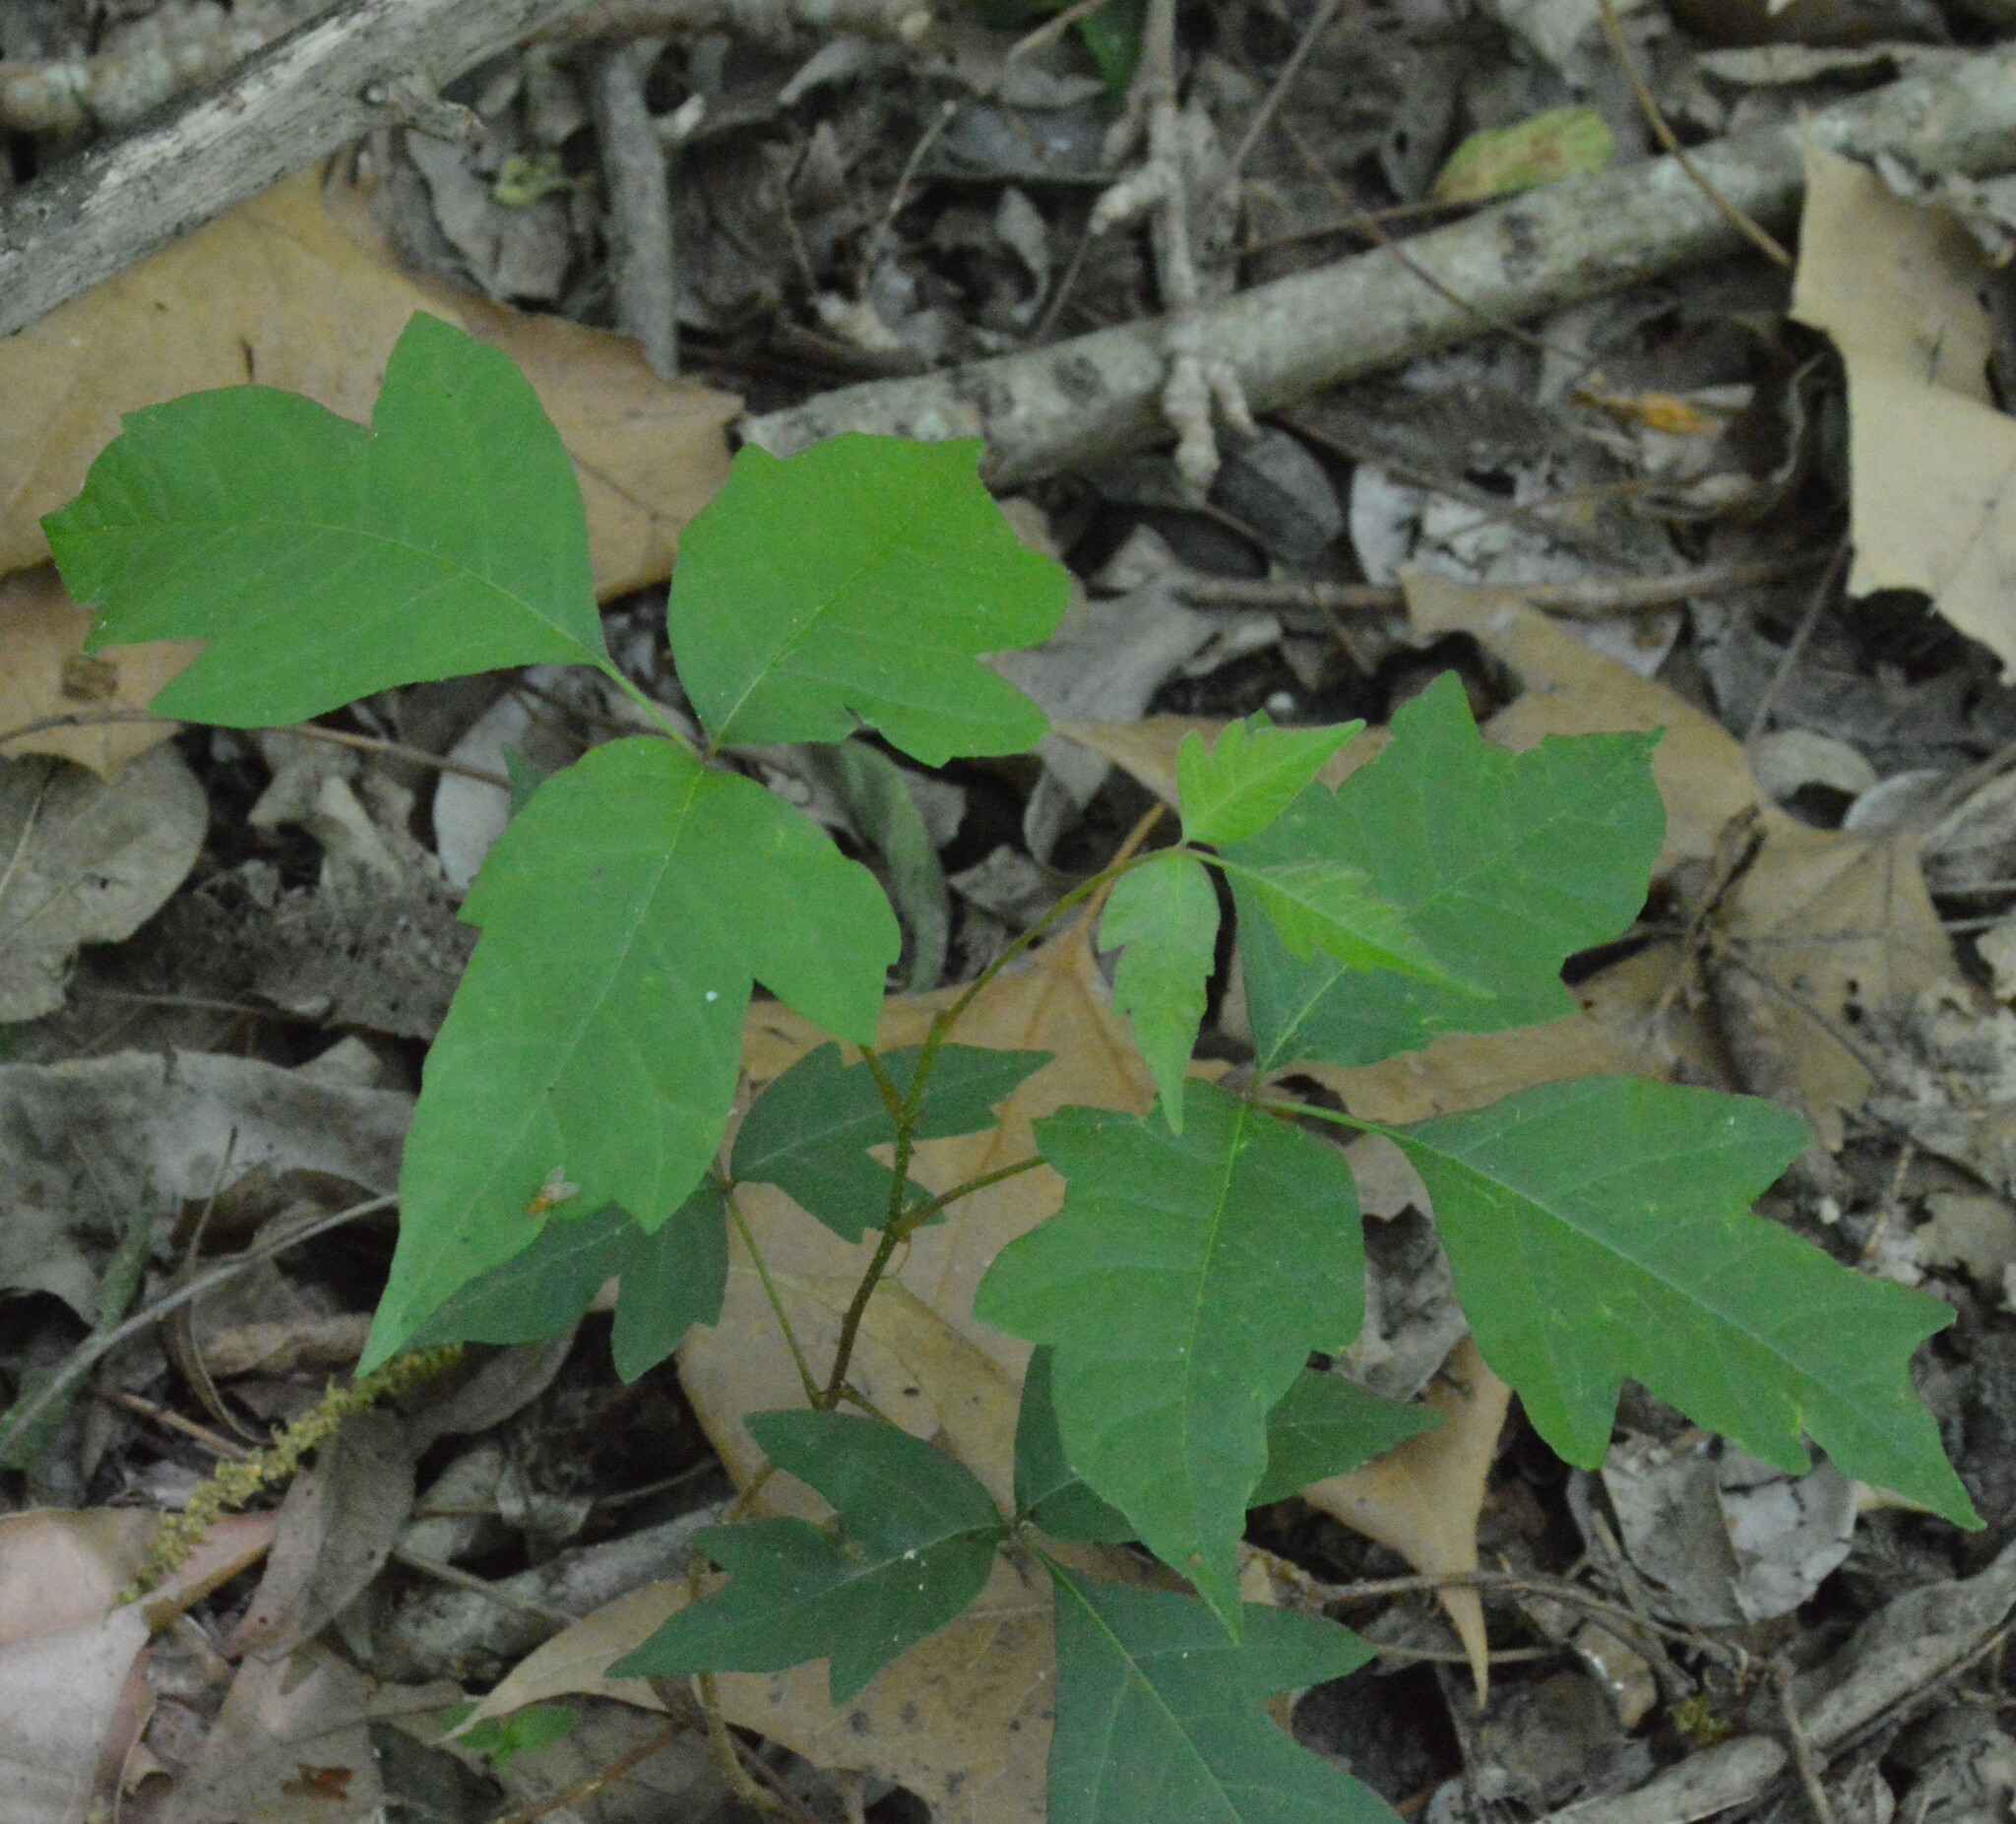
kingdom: Plantae
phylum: Tracheophyta
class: Magnoliopsida
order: Sapindales
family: Anacardiaceae
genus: Toxicodendron
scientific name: Toxicodendron radicans
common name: Poison ivy
